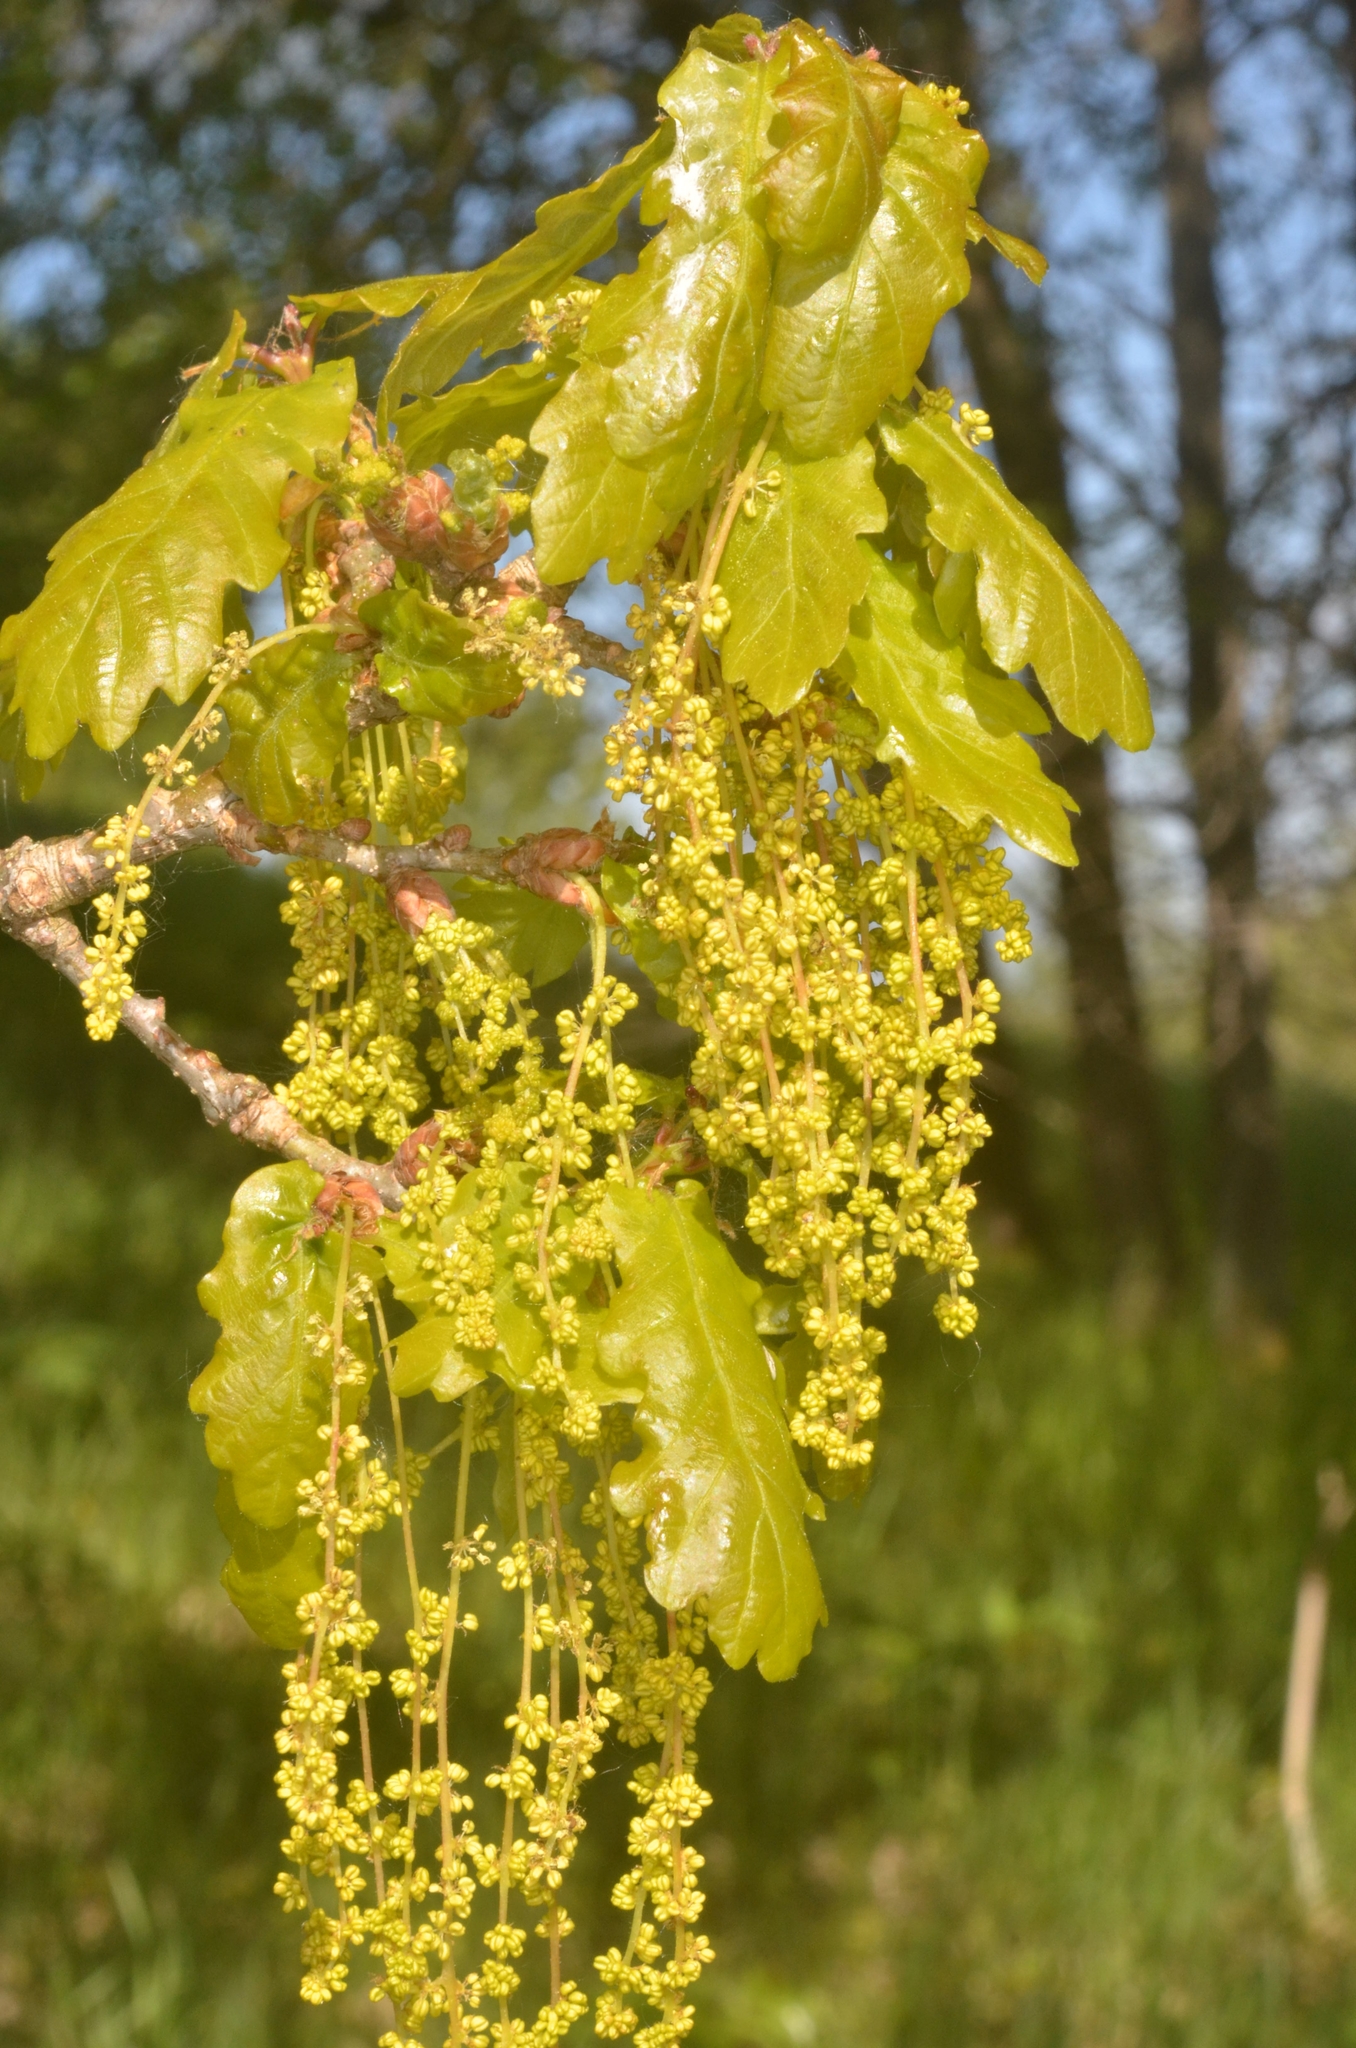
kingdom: Plantae
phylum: Tracheophyta
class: Magnoliopsida
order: Fagales
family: Fagaceae
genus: Quercus
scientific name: Quercus robur
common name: Pedunculate oak
